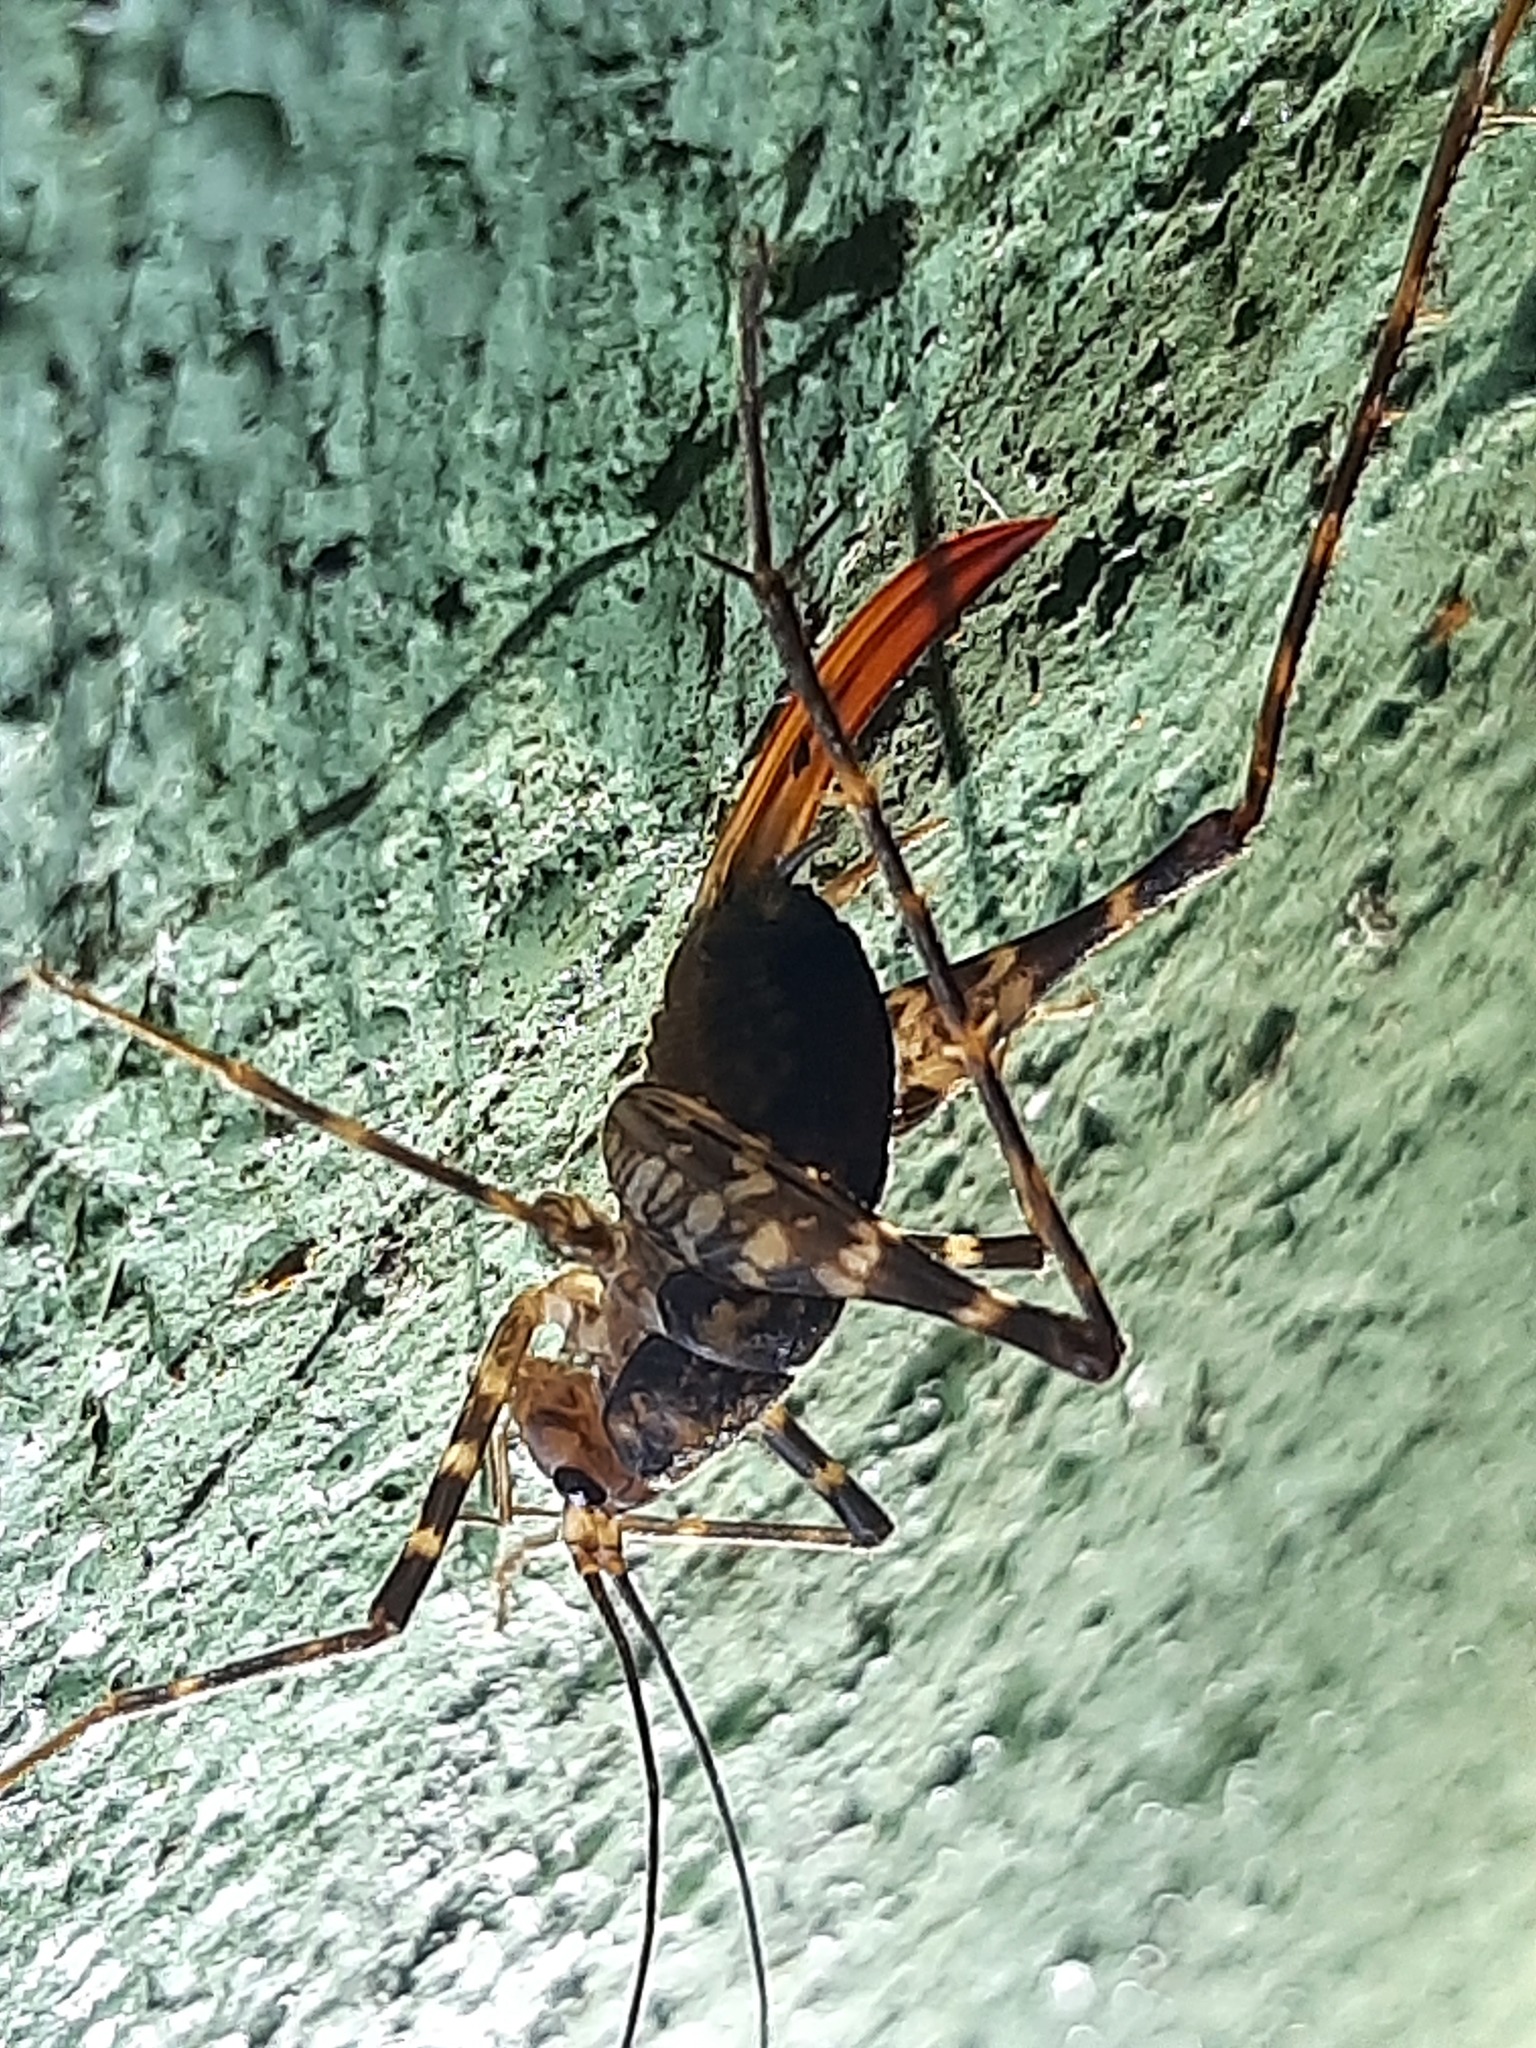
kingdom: Animalia
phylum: Arthropoda
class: Insecta
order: Orthoptera
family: Rhaphidophoridae
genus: Miotopus
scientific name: Miotopus richardsae
